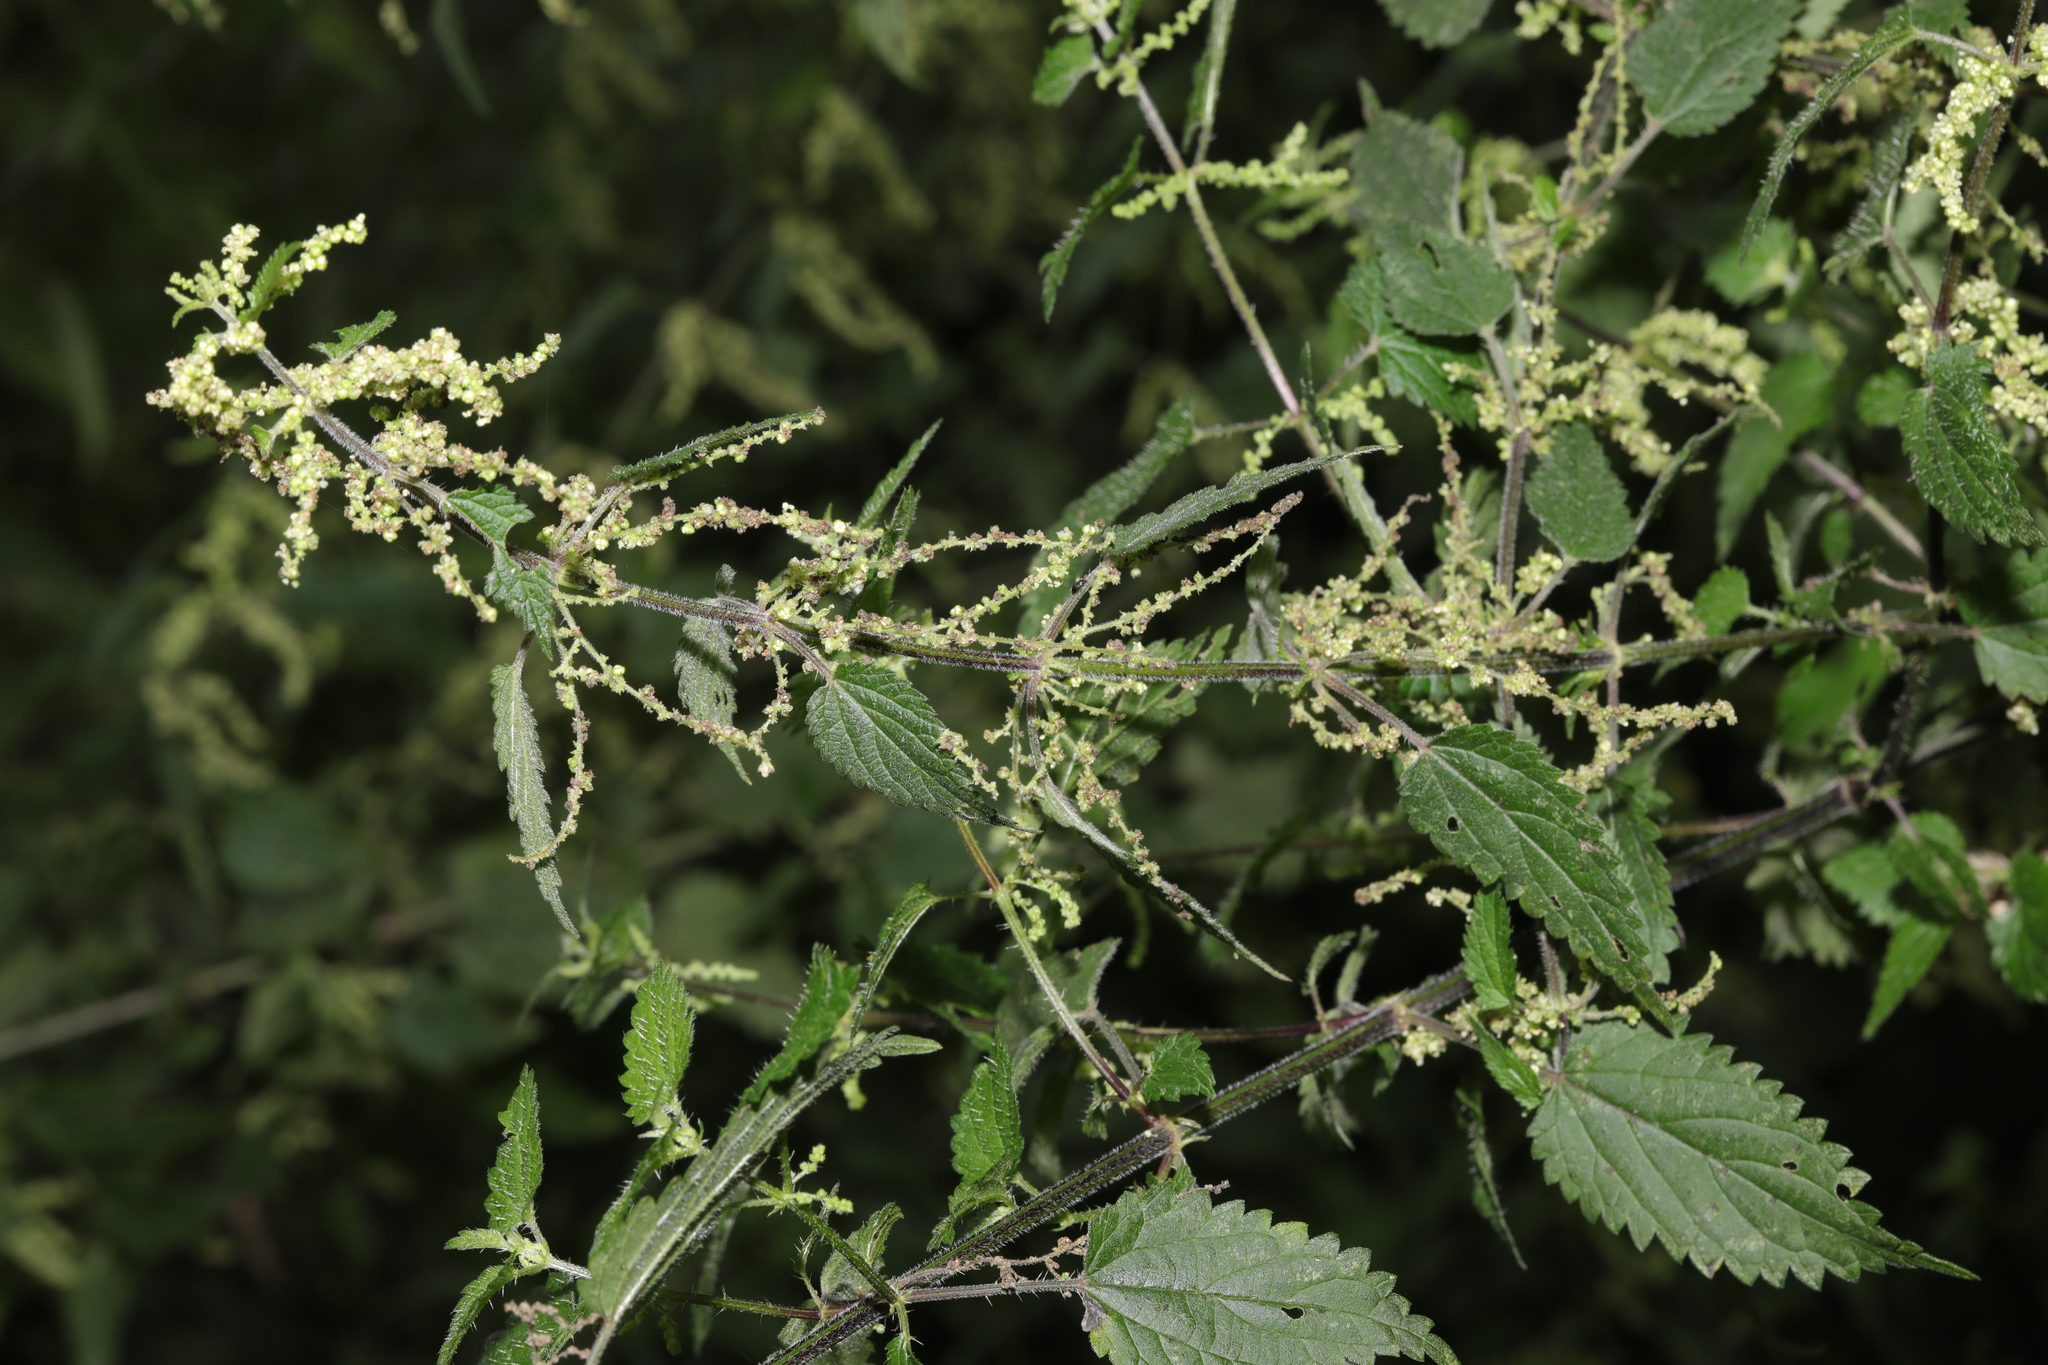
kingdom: Plantae
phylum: Tracheophyta
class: Magnoliopsida
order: Rosales
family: Urticaceae
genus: Urtica
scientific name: Urtica dioica
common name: Common nettle
